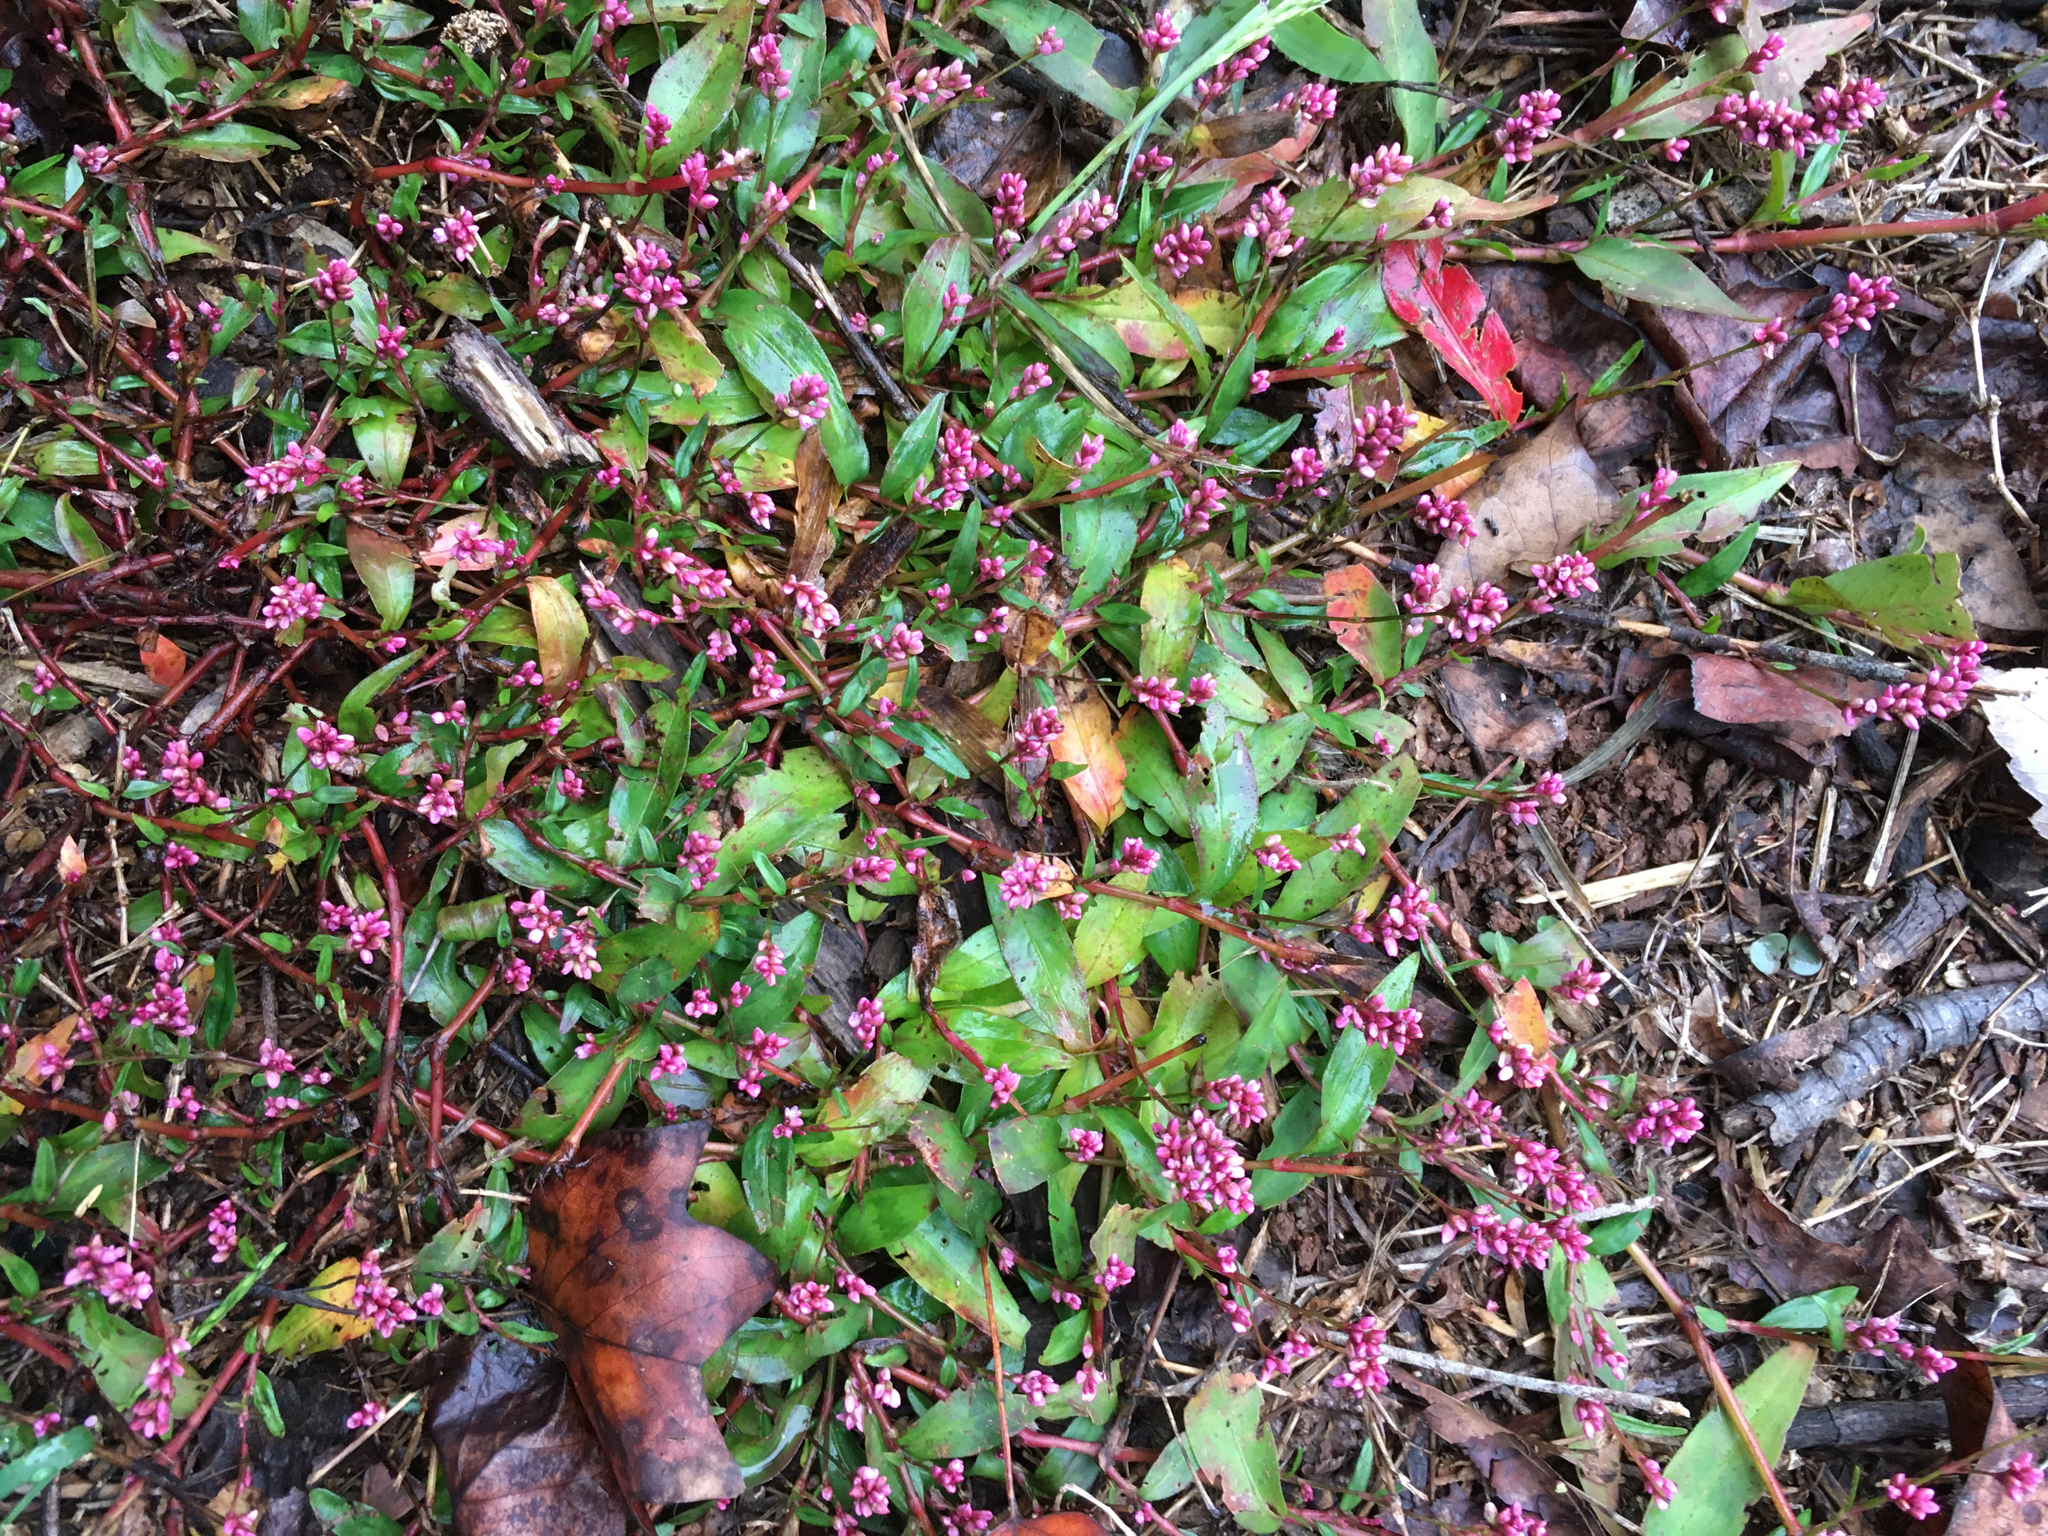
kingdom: Plantae
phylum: Tracheophyta
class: Magnoliopsida
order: Caryophyllales
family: Polygonaceae
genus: Persicaria
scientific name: Persicaria longiseta
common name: Bristly lady's-thumb
